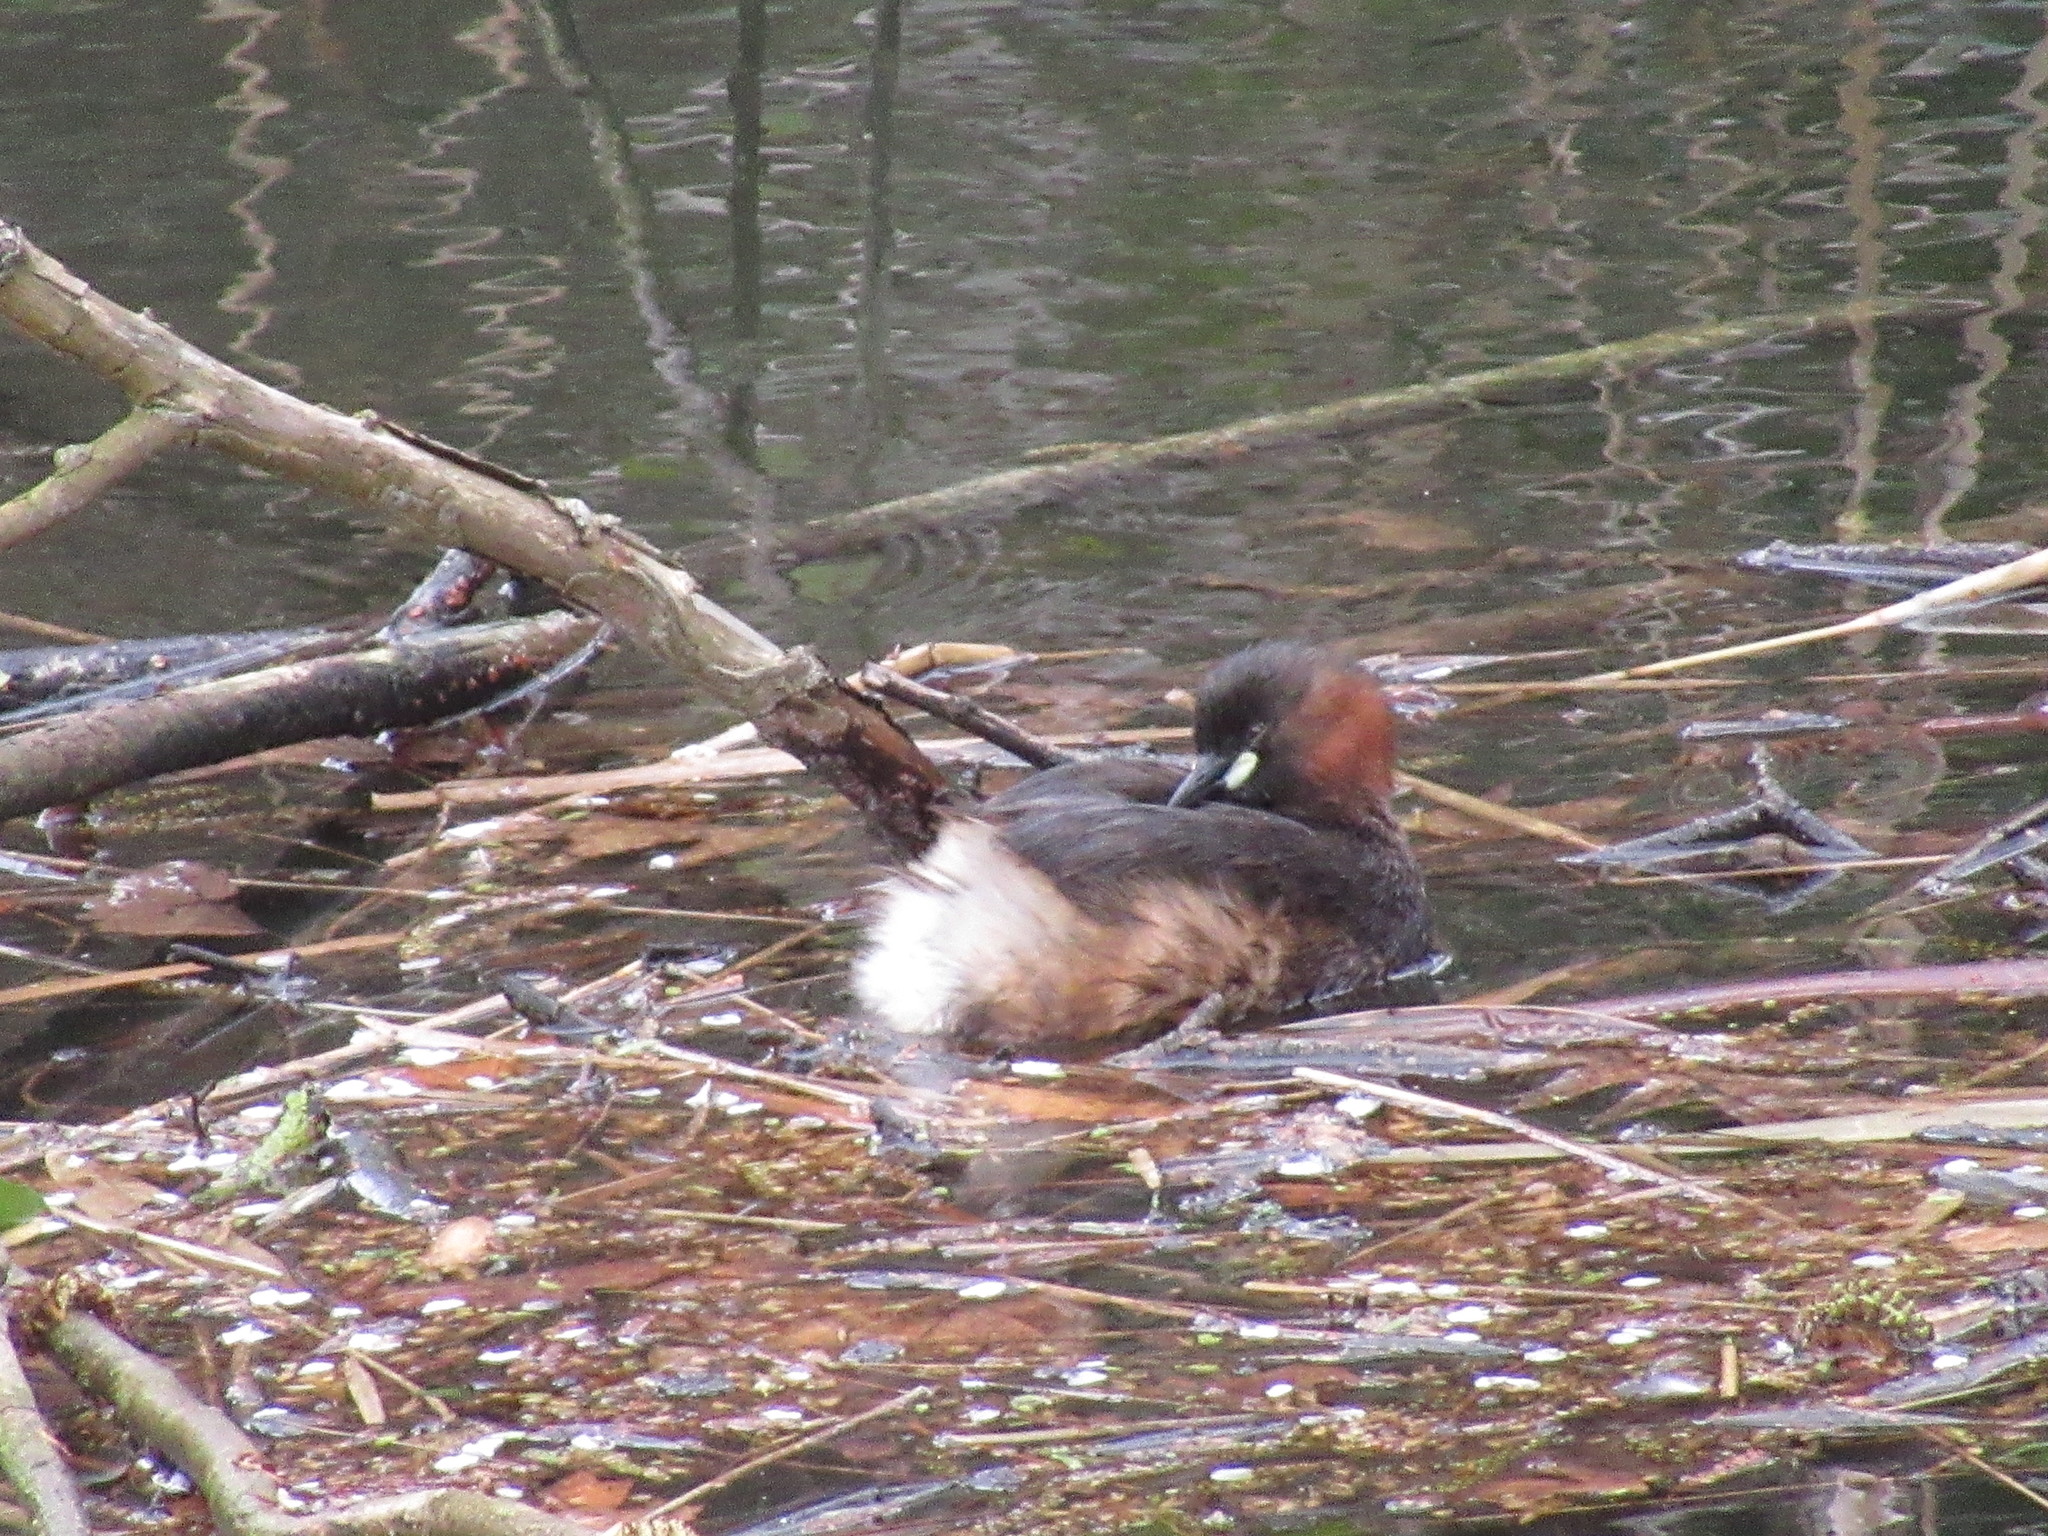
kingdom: Animalia
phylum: Chordata
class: Aves
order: Podicipediformes
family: Podicipedidae
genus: Tachybaptus
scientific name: Tachybaptus ruficollis
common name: Little grebe
